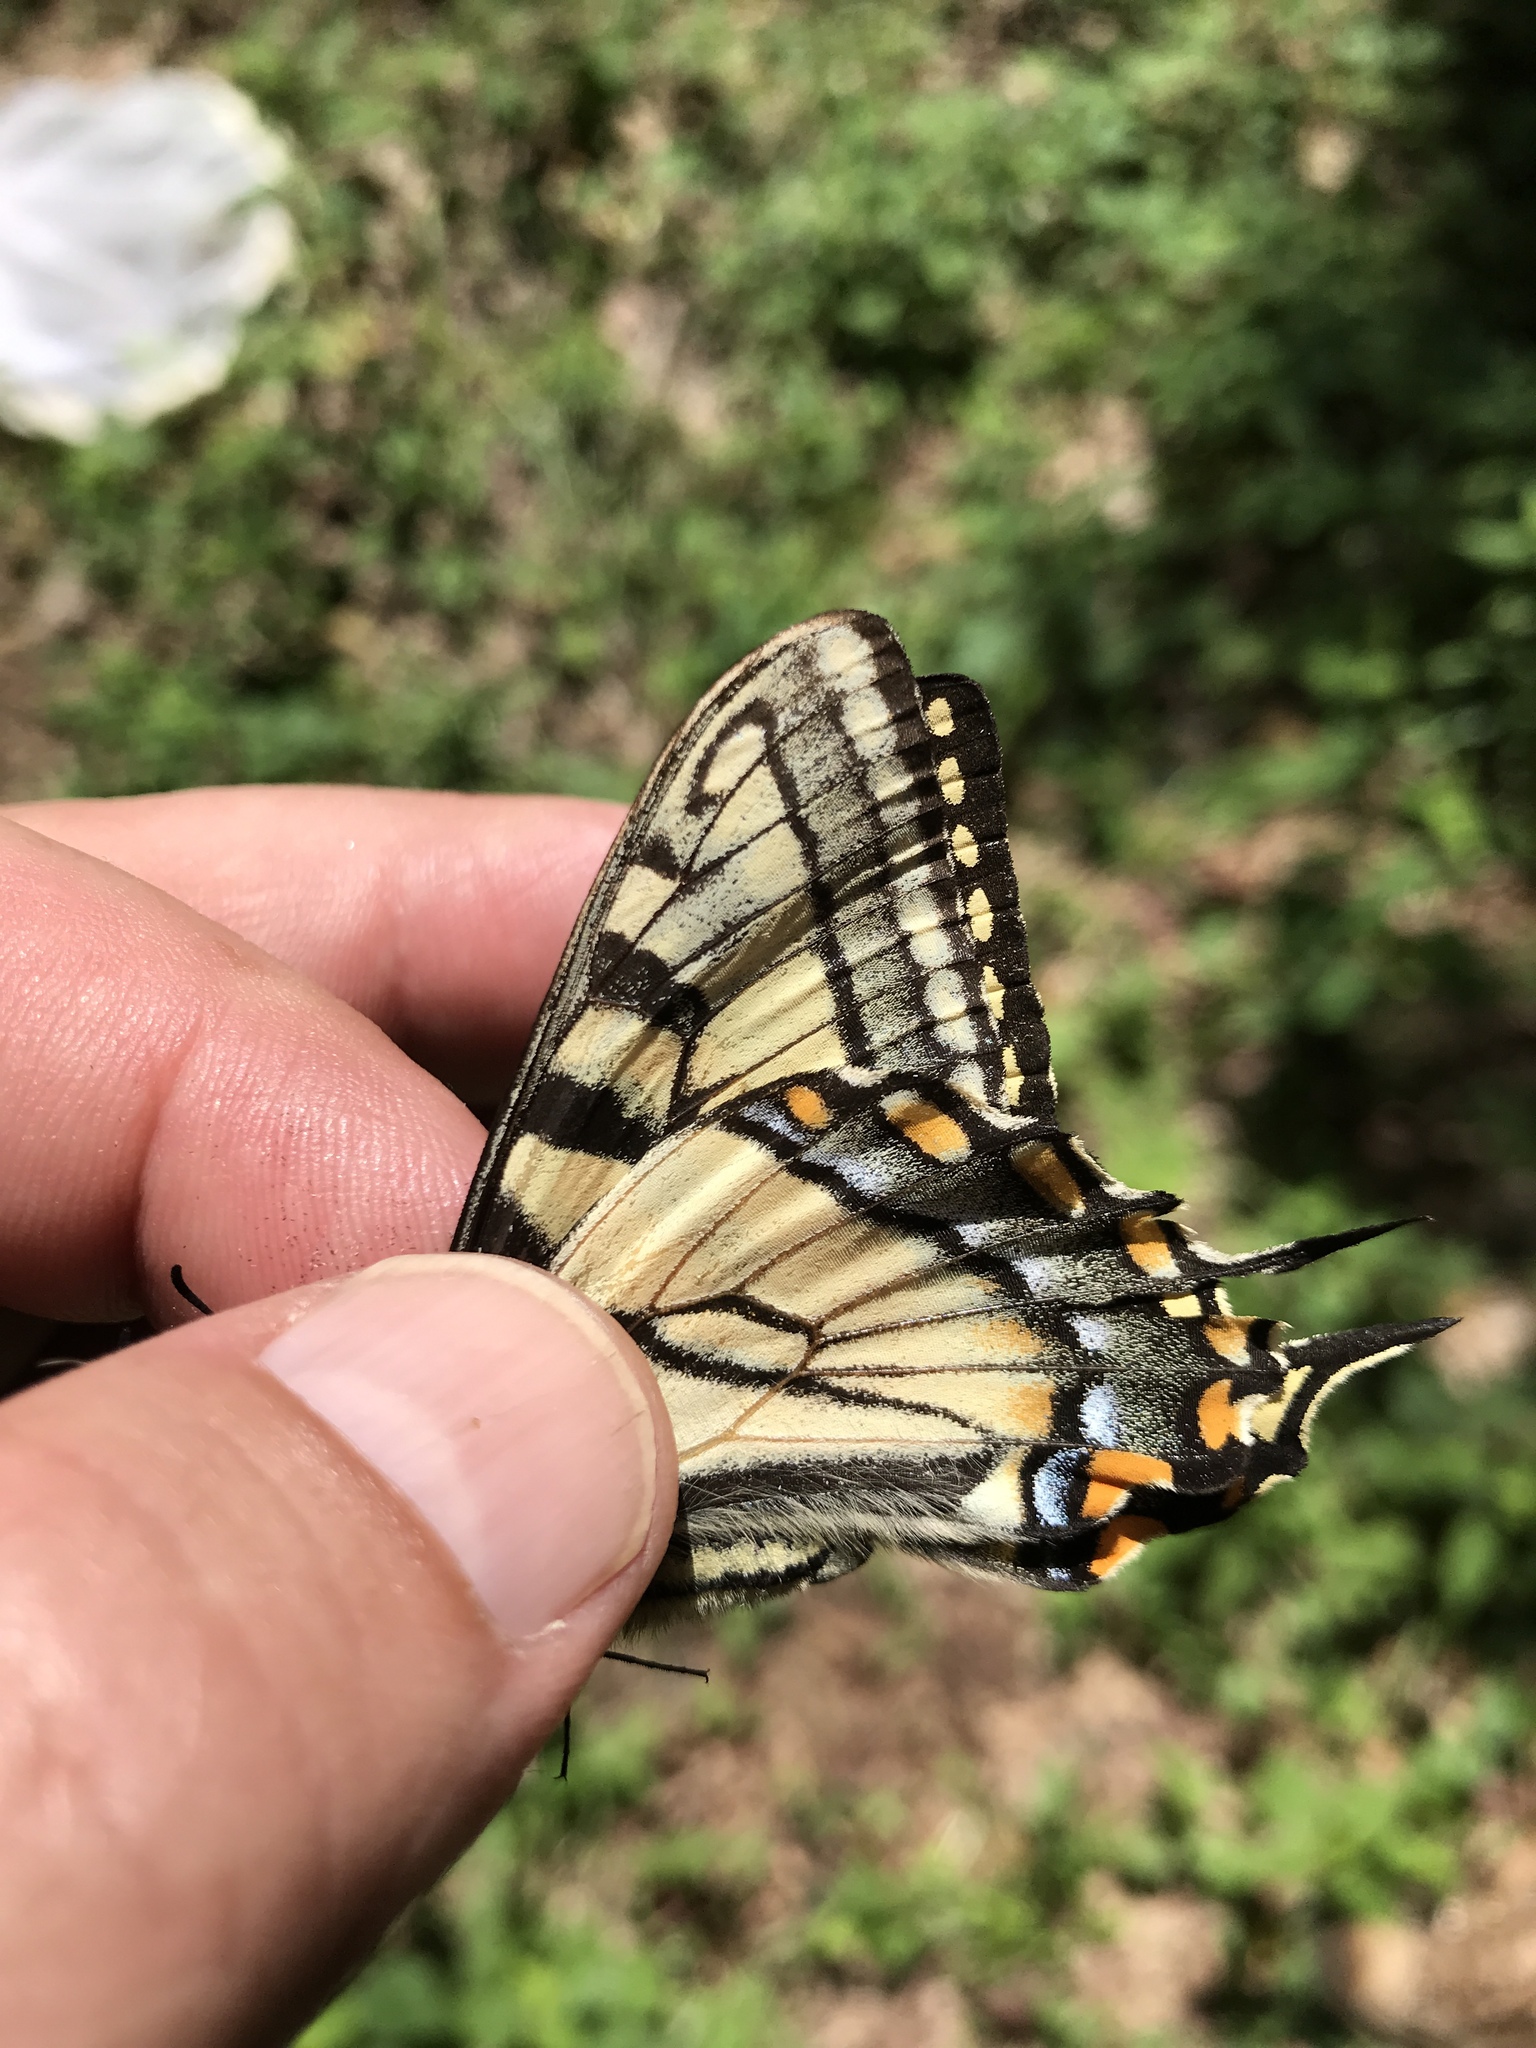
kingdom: Animalia
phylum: Arthropoda
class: Insecta
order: Lepidoptera
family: Papilionidae
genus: Papilio
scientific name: Papilio canadensis
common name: Canadian tiger swallowtail
